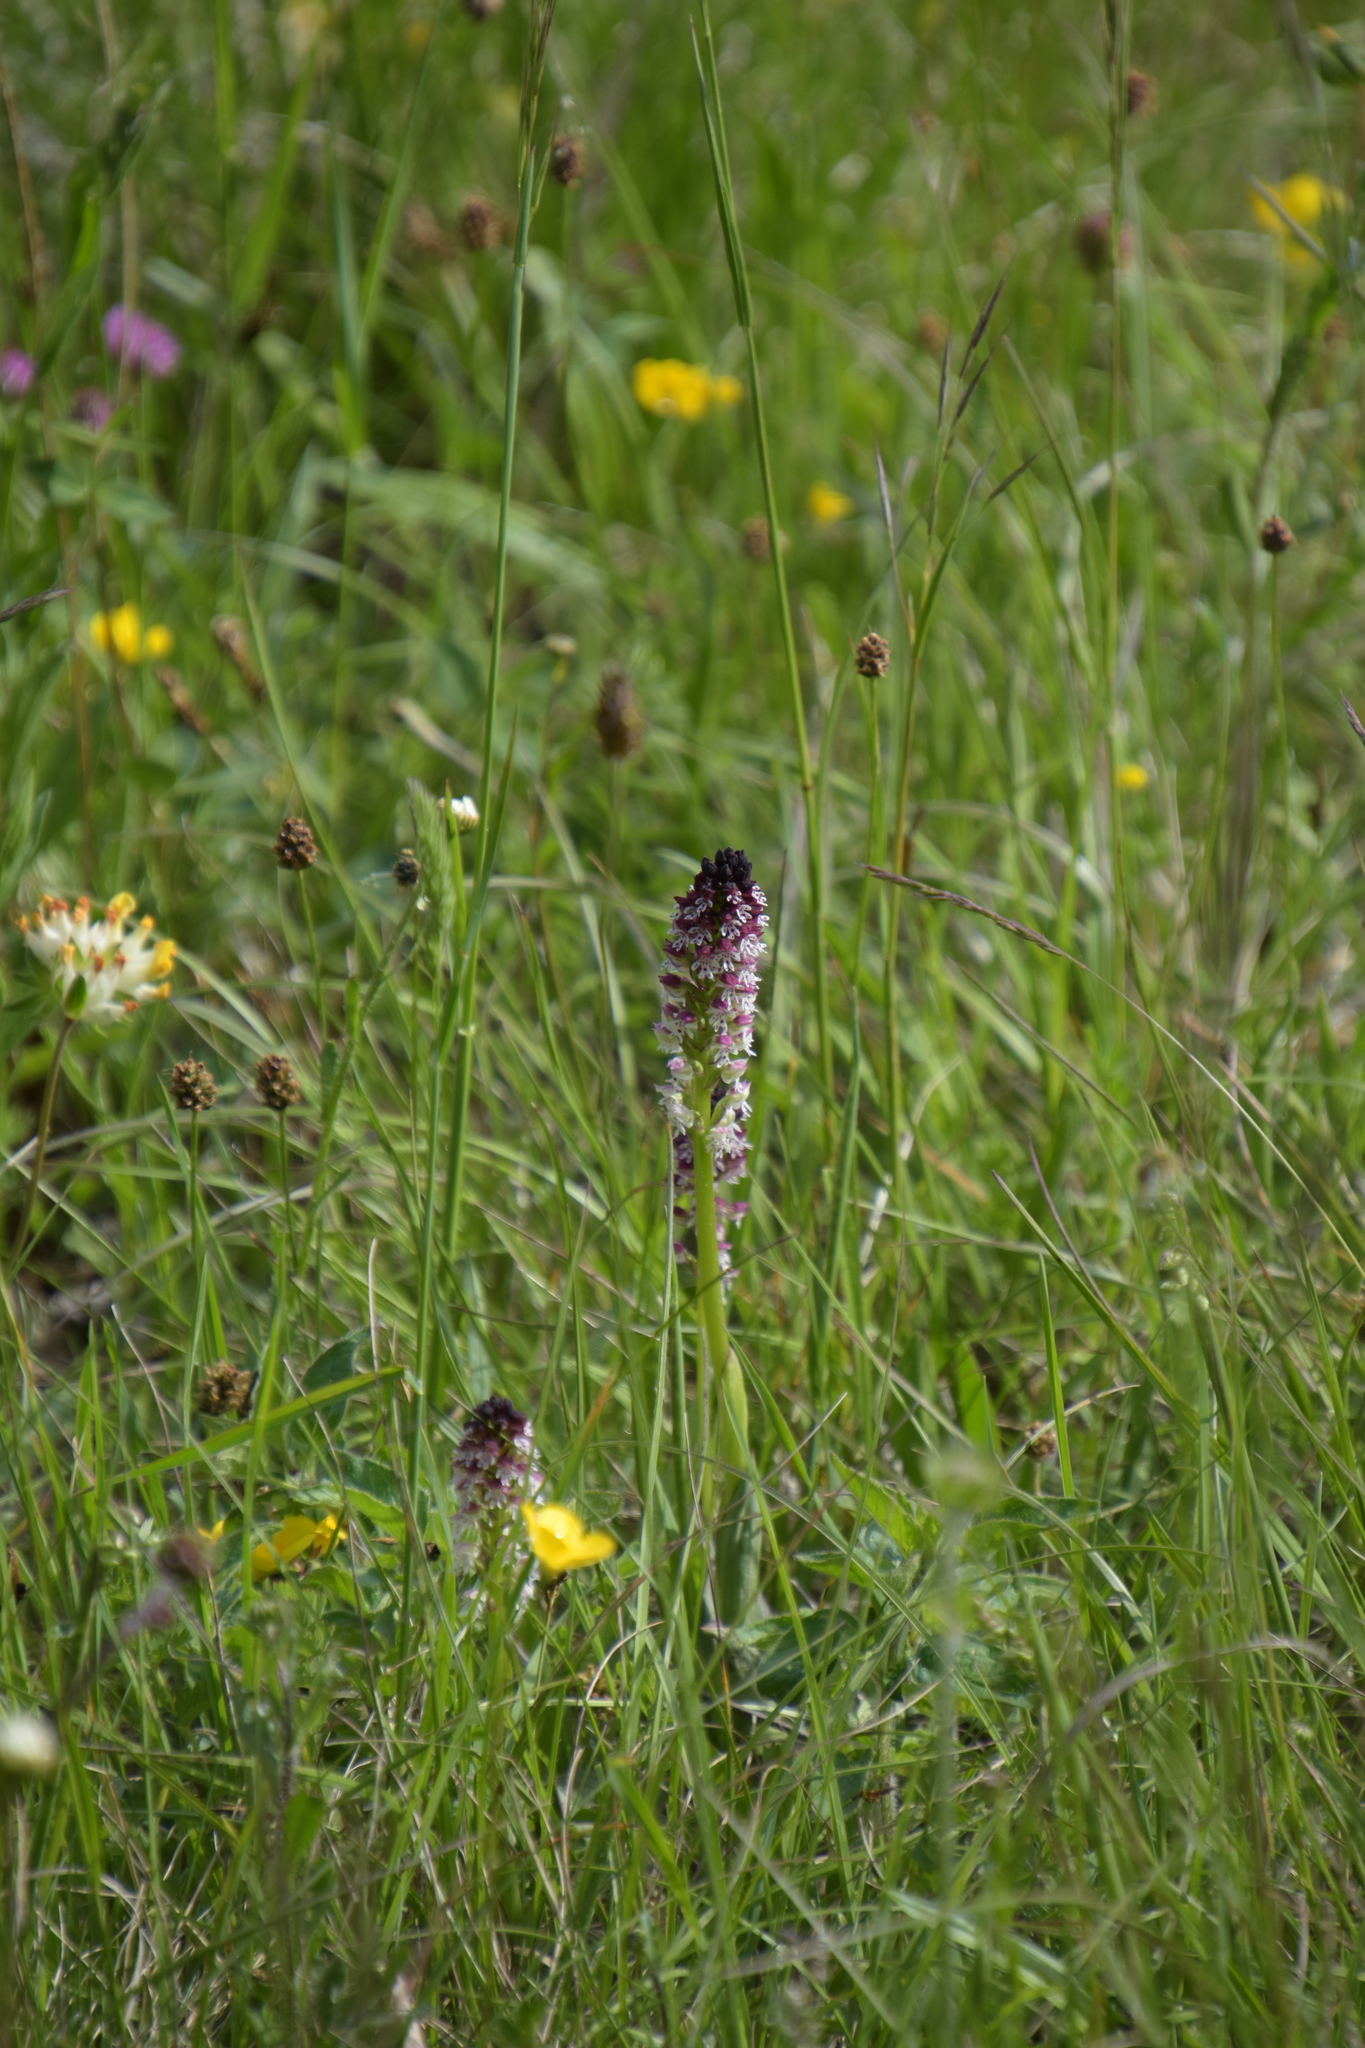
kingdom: Plantae
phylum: Tracheophyta
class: Liliopsida
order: Asparagales
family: Orchidaceae
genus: Neotinea
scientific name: Neotinea ustulata
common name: Burnt orchid
